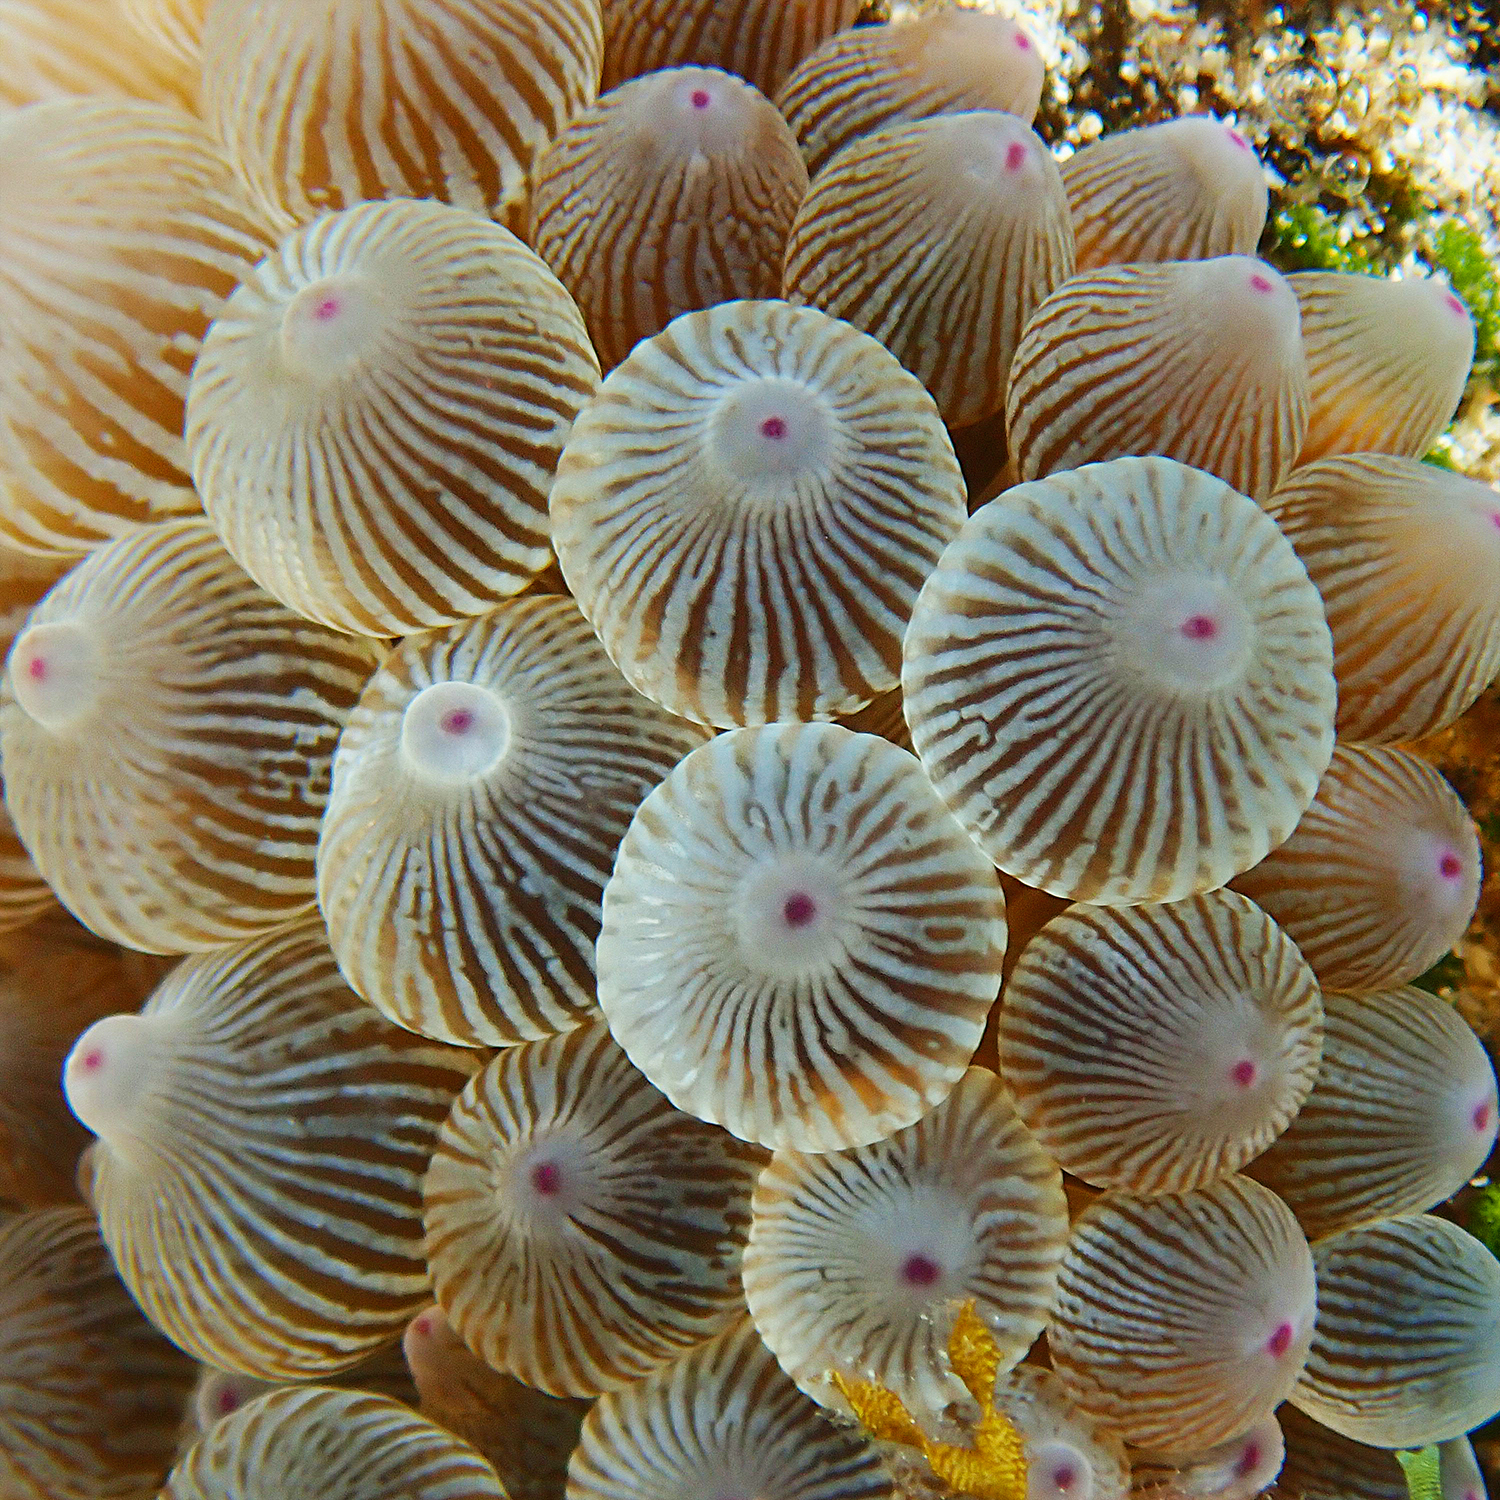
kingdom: Animalia
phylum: Cnidaria
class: Anthozoa
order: Actiniaria
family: Actiniidae
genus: Entacmaea
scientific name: Entacmaea quadricolor
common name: Bulb tentacle sea anemone
